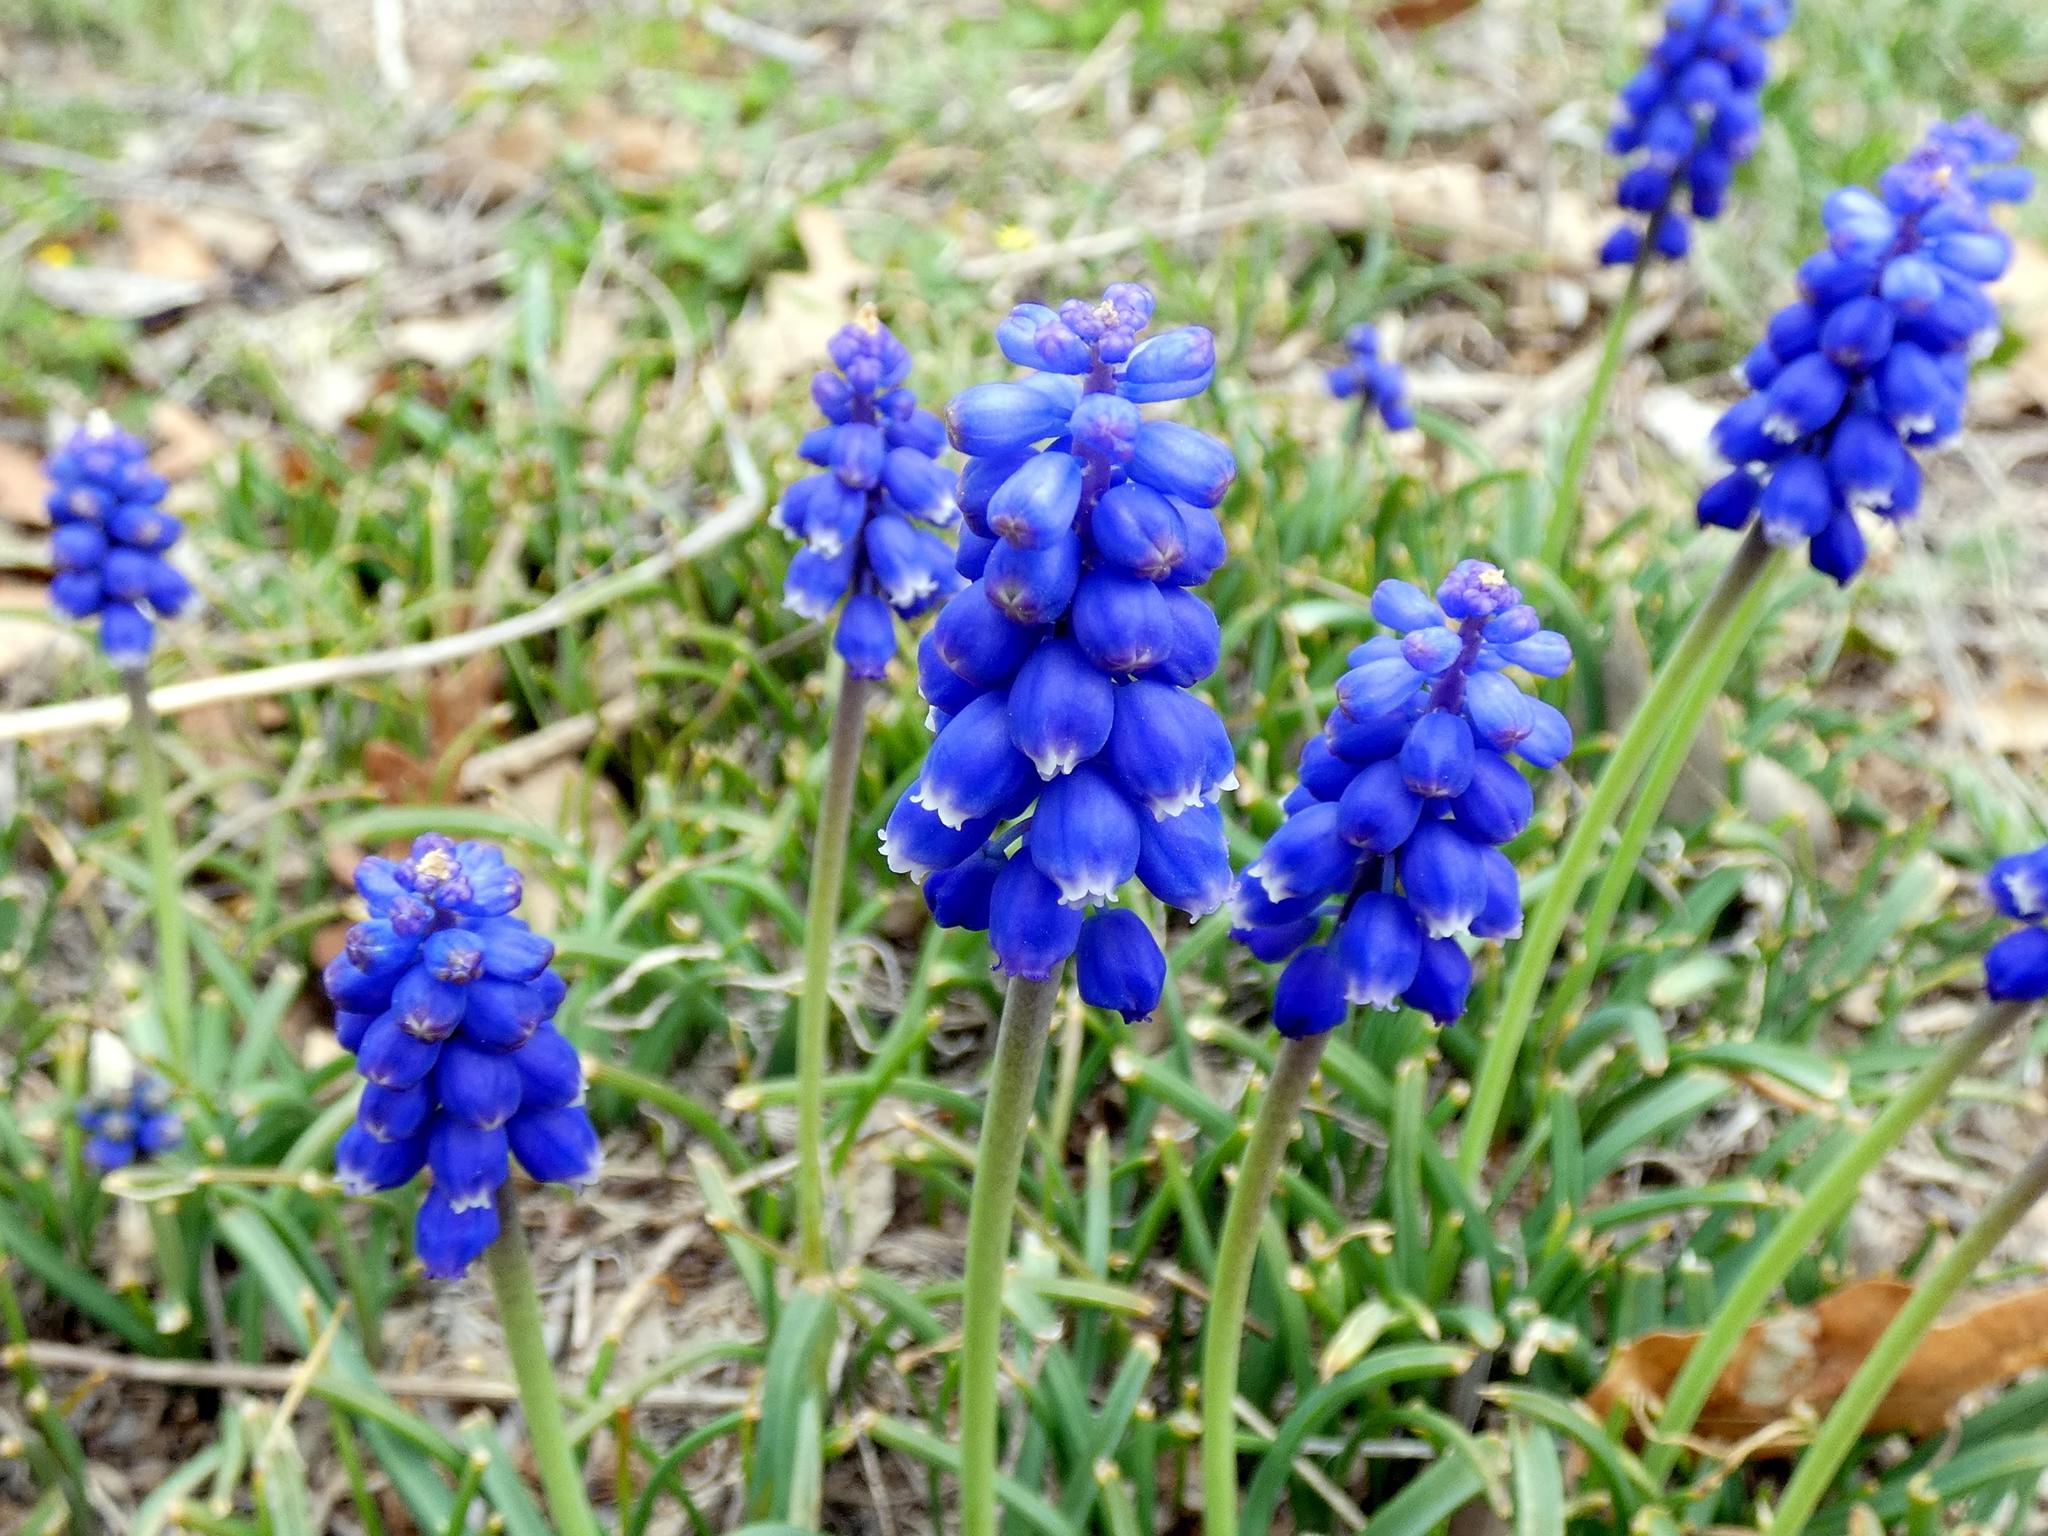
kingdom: Plantae
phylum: Tracheophyta
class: Liliopsida
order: Asparagales
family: Asparagaceae
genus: Muscari
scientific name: Muscari armeniacum
